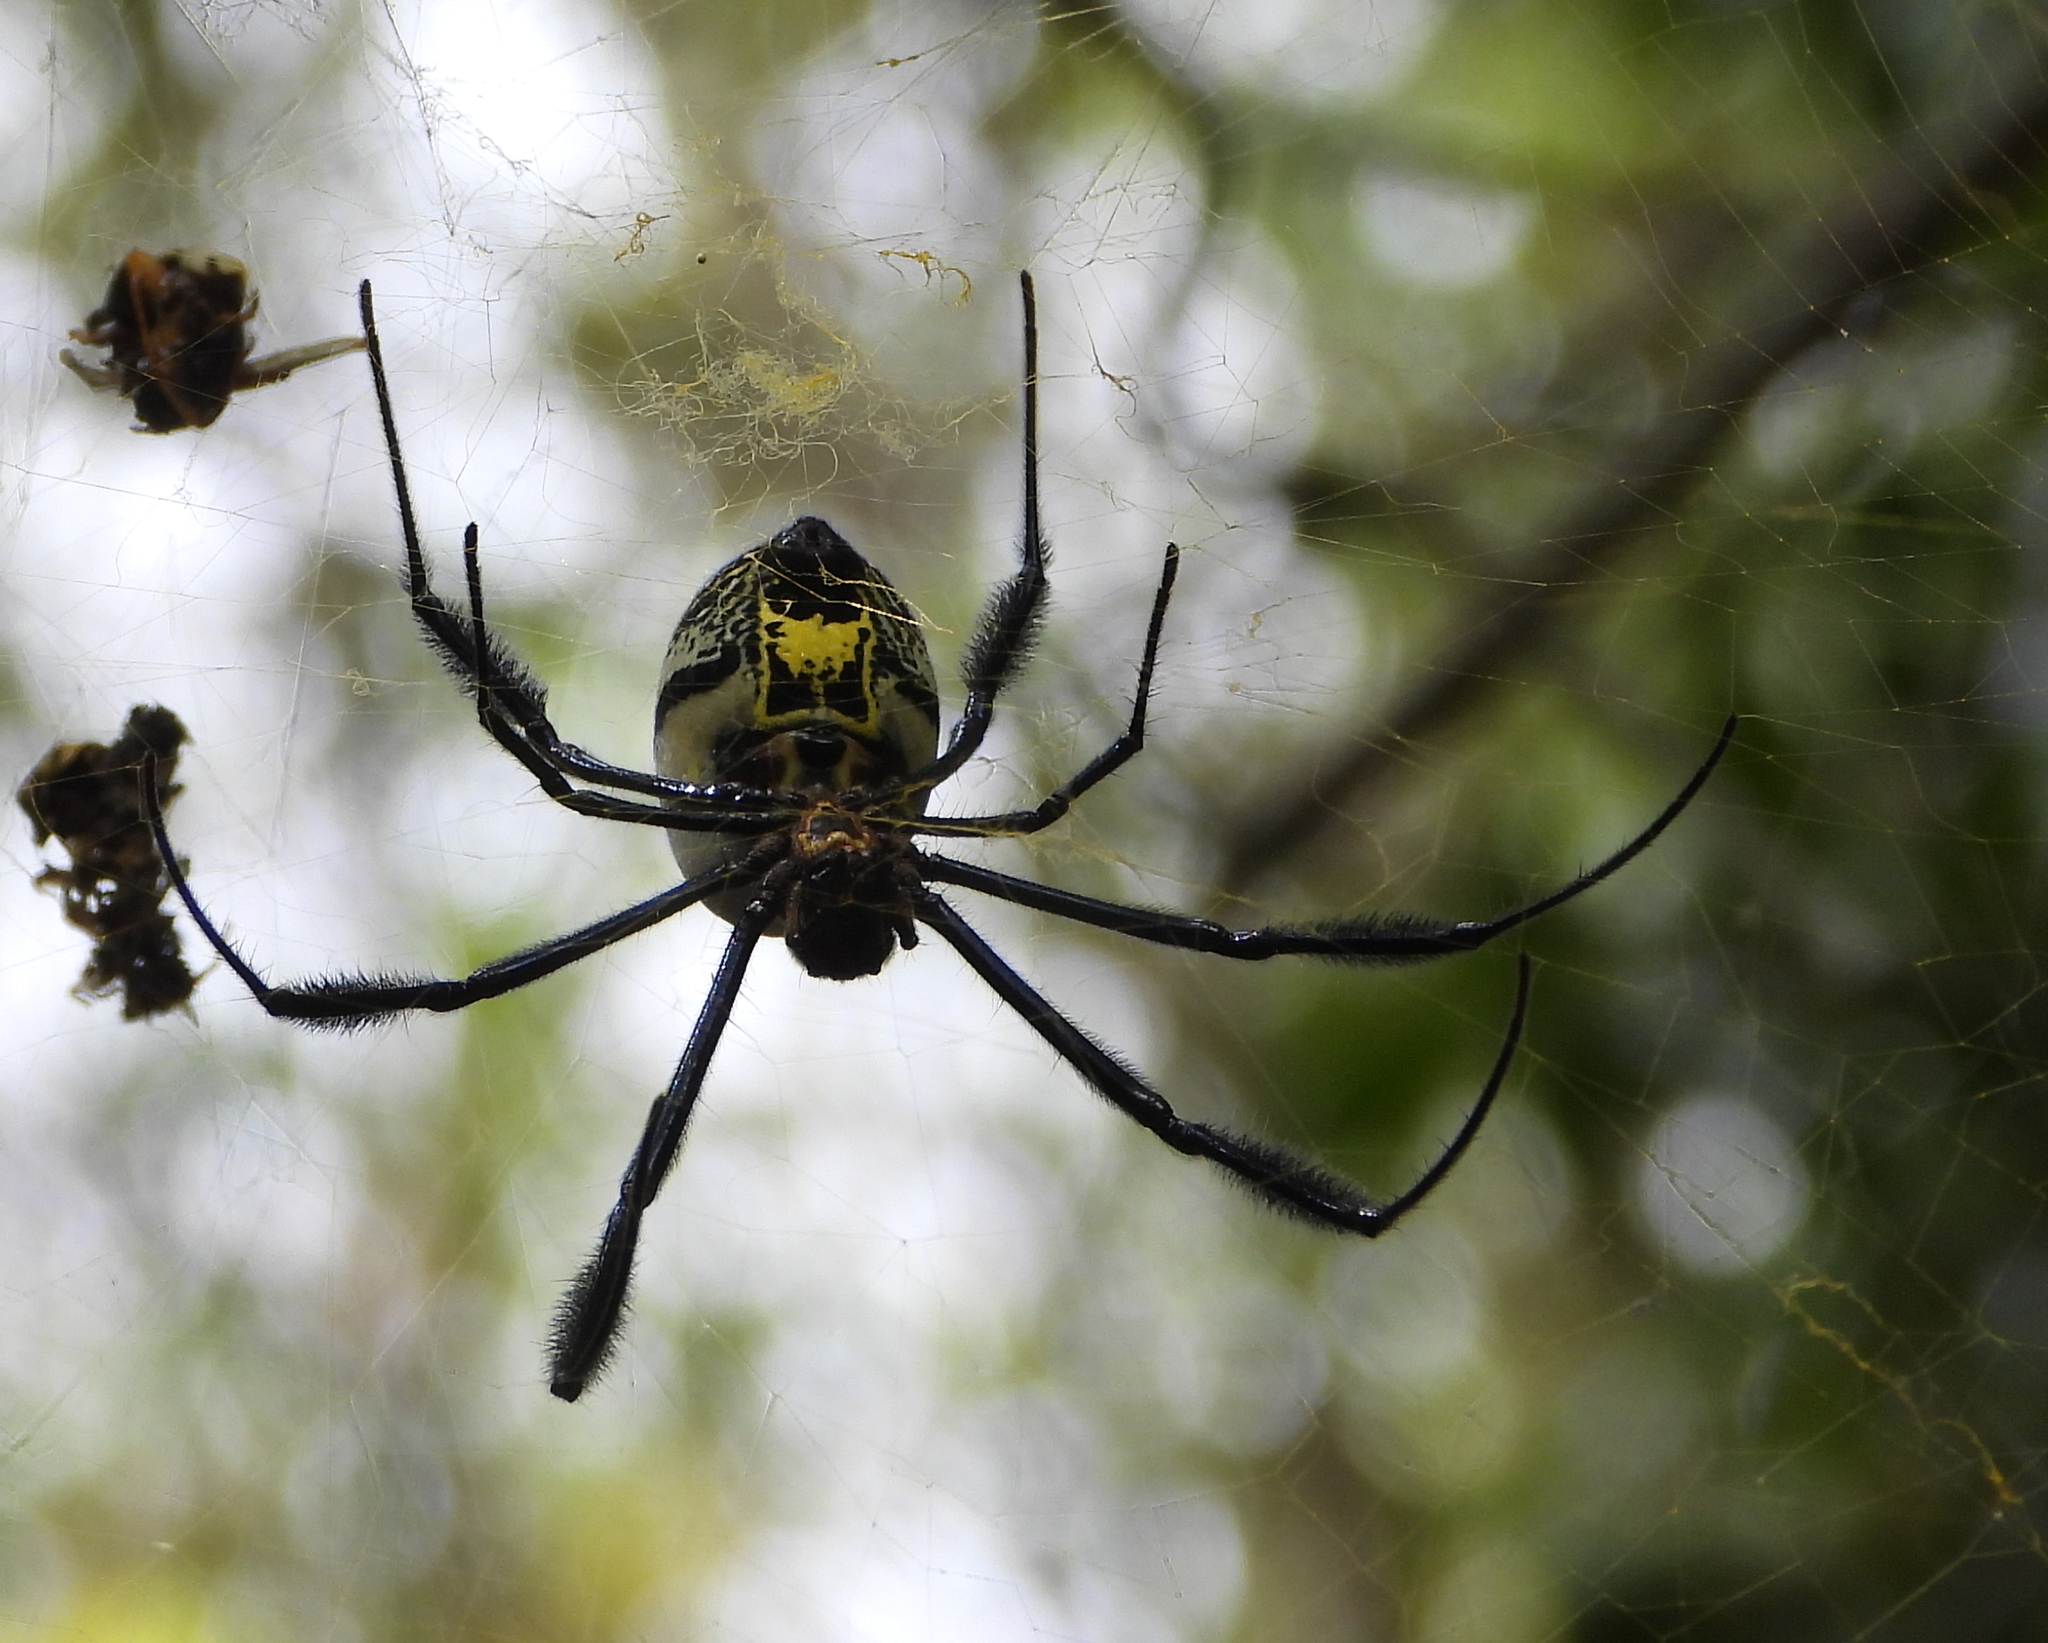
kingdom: Animalia
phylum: Arthropoda
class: Arachnida
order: Araneae
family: Araneidae
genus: Trichonephila
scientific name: Trichonephila fenestrata
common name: Hairy golden orb weaver
